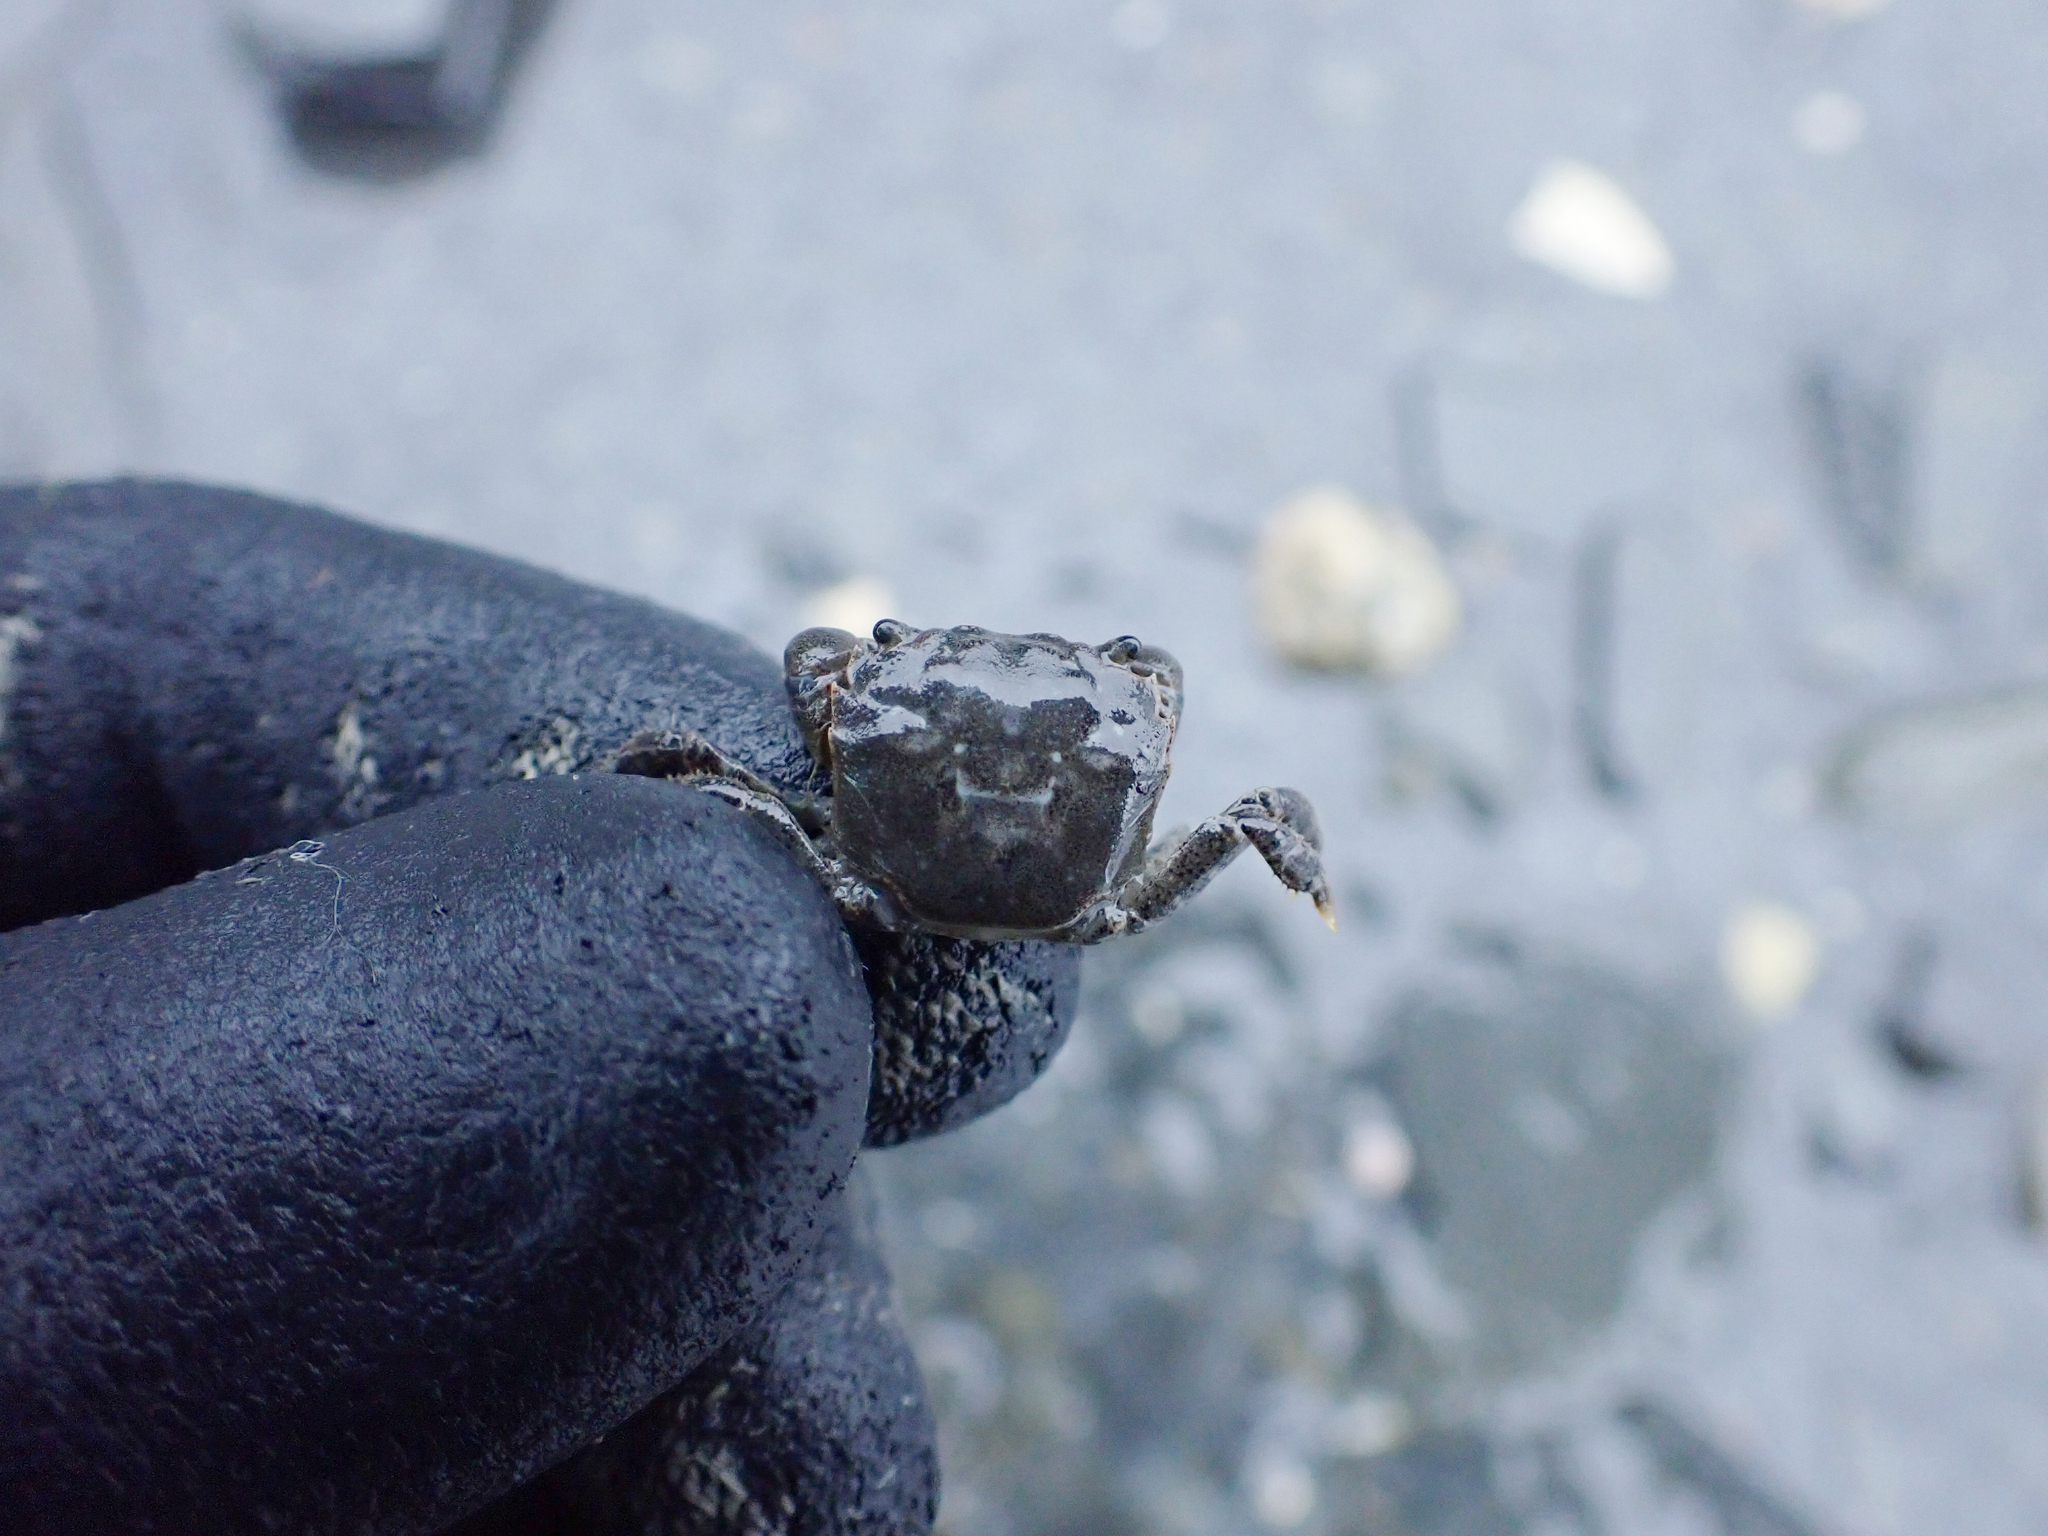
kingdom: Animalia
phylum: Arthropoda
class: Malacostraca
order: Decapoda
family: Varunidae
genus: Hemigrapsus
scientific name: Hemigrapsus oregonensis
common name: Yellow shore crab
